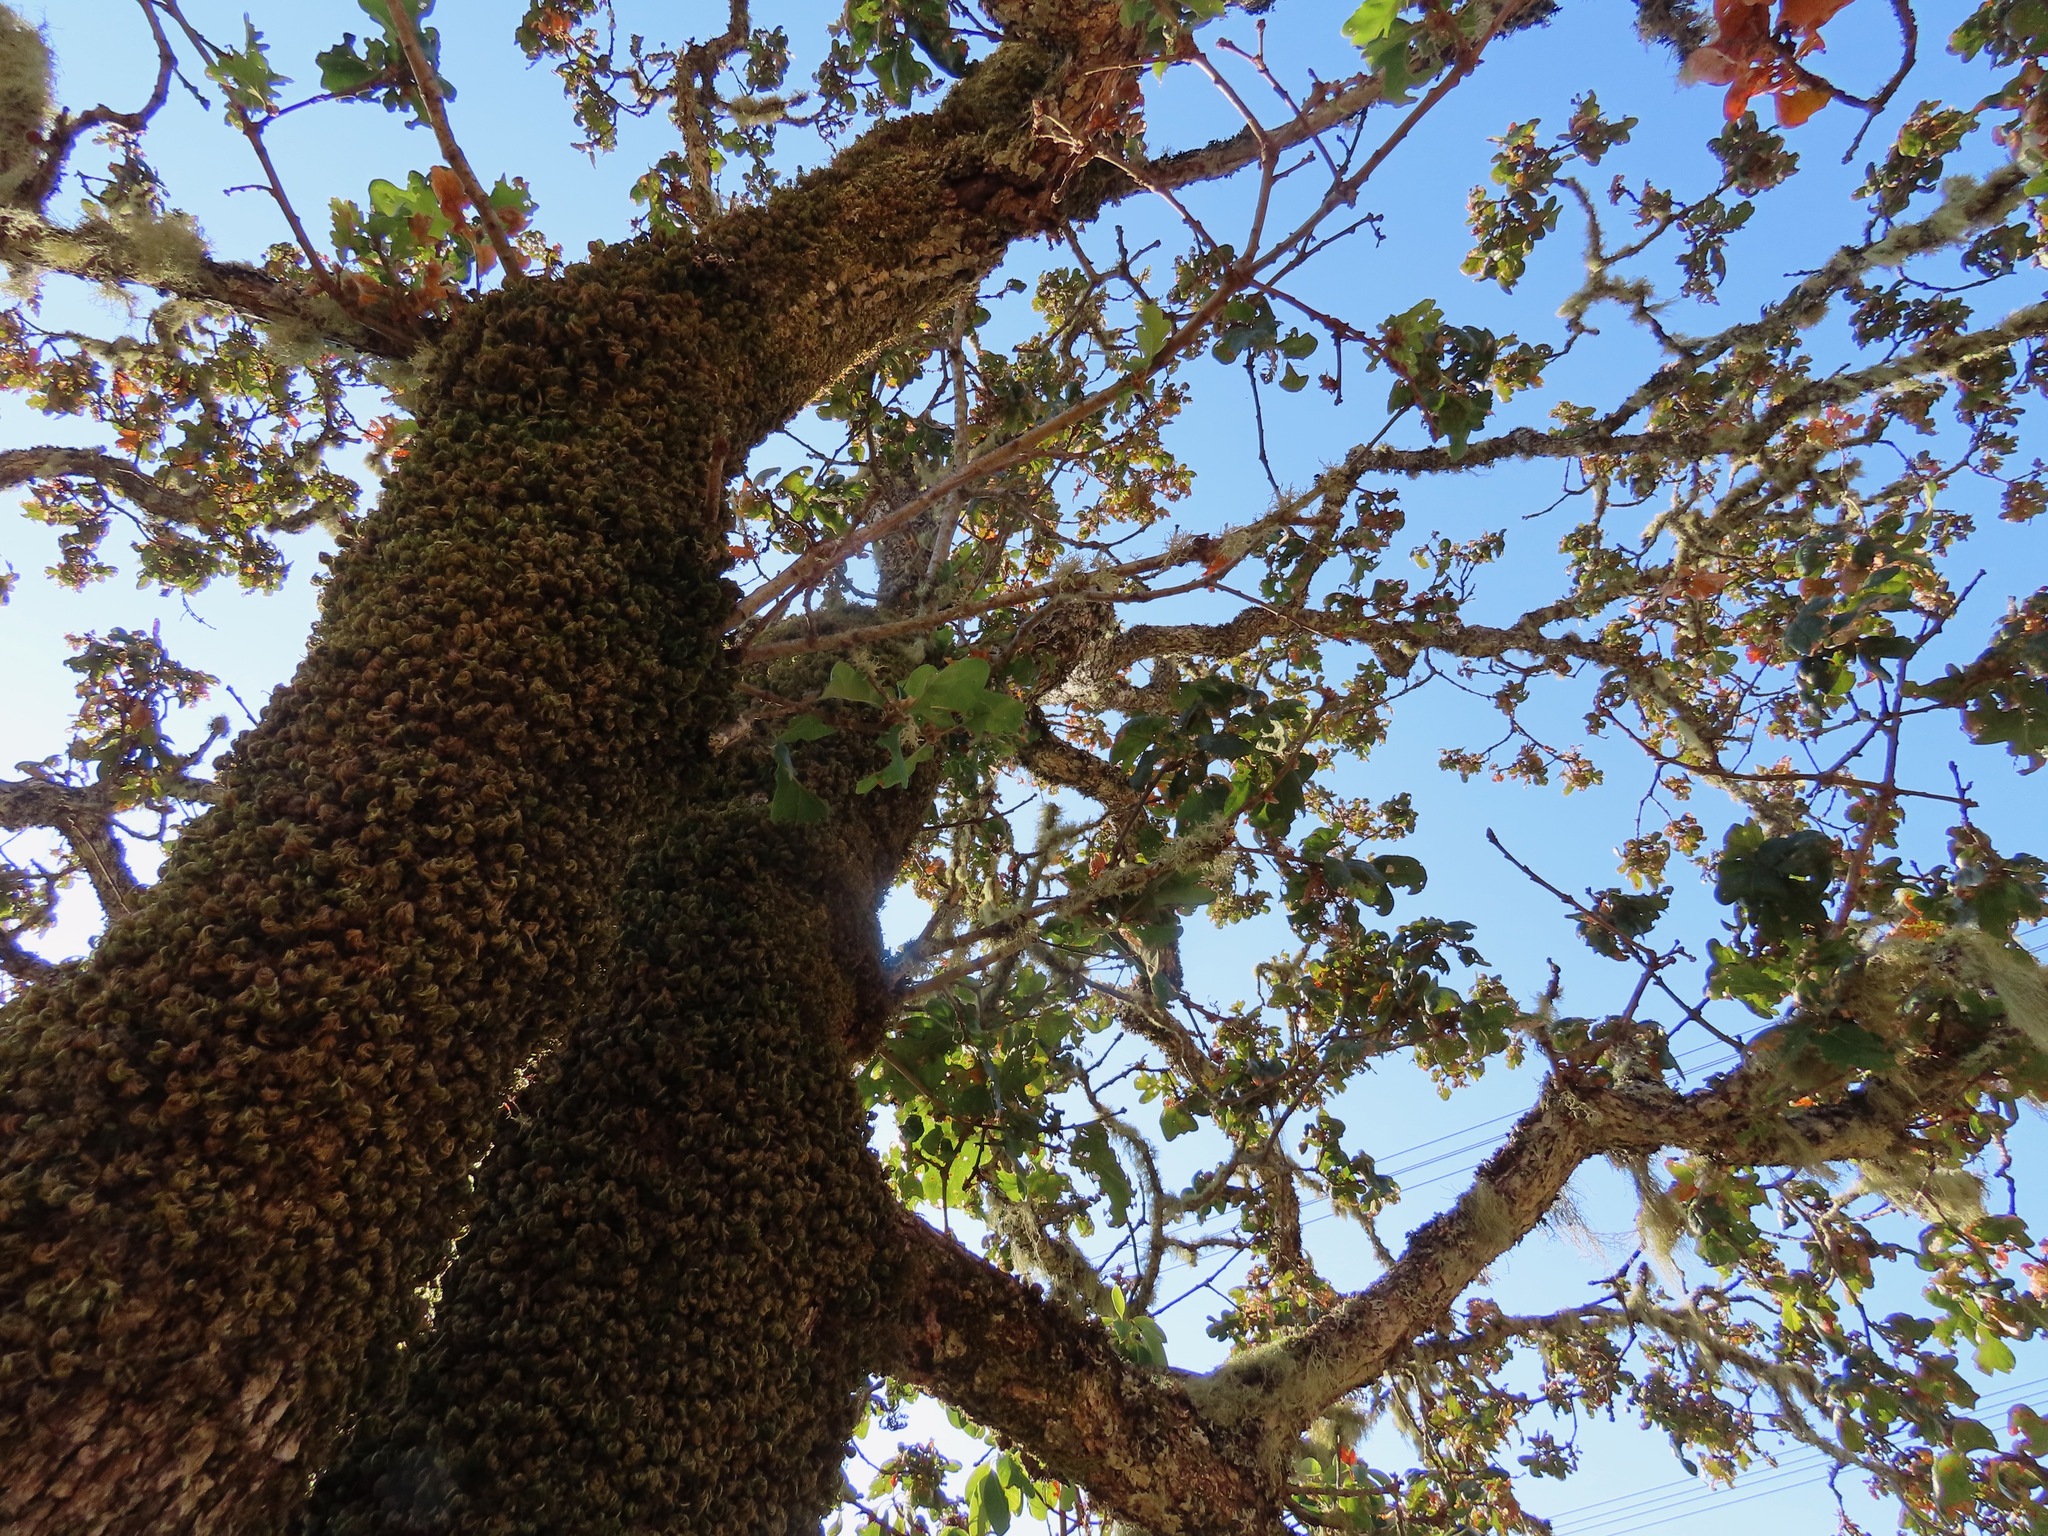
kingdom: Plantae
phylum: Tracheophyta
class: Magnoliopsida
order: Fagales
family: Fagaceae
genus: Quercus
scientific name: Quercus garryana
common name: Garry oak
